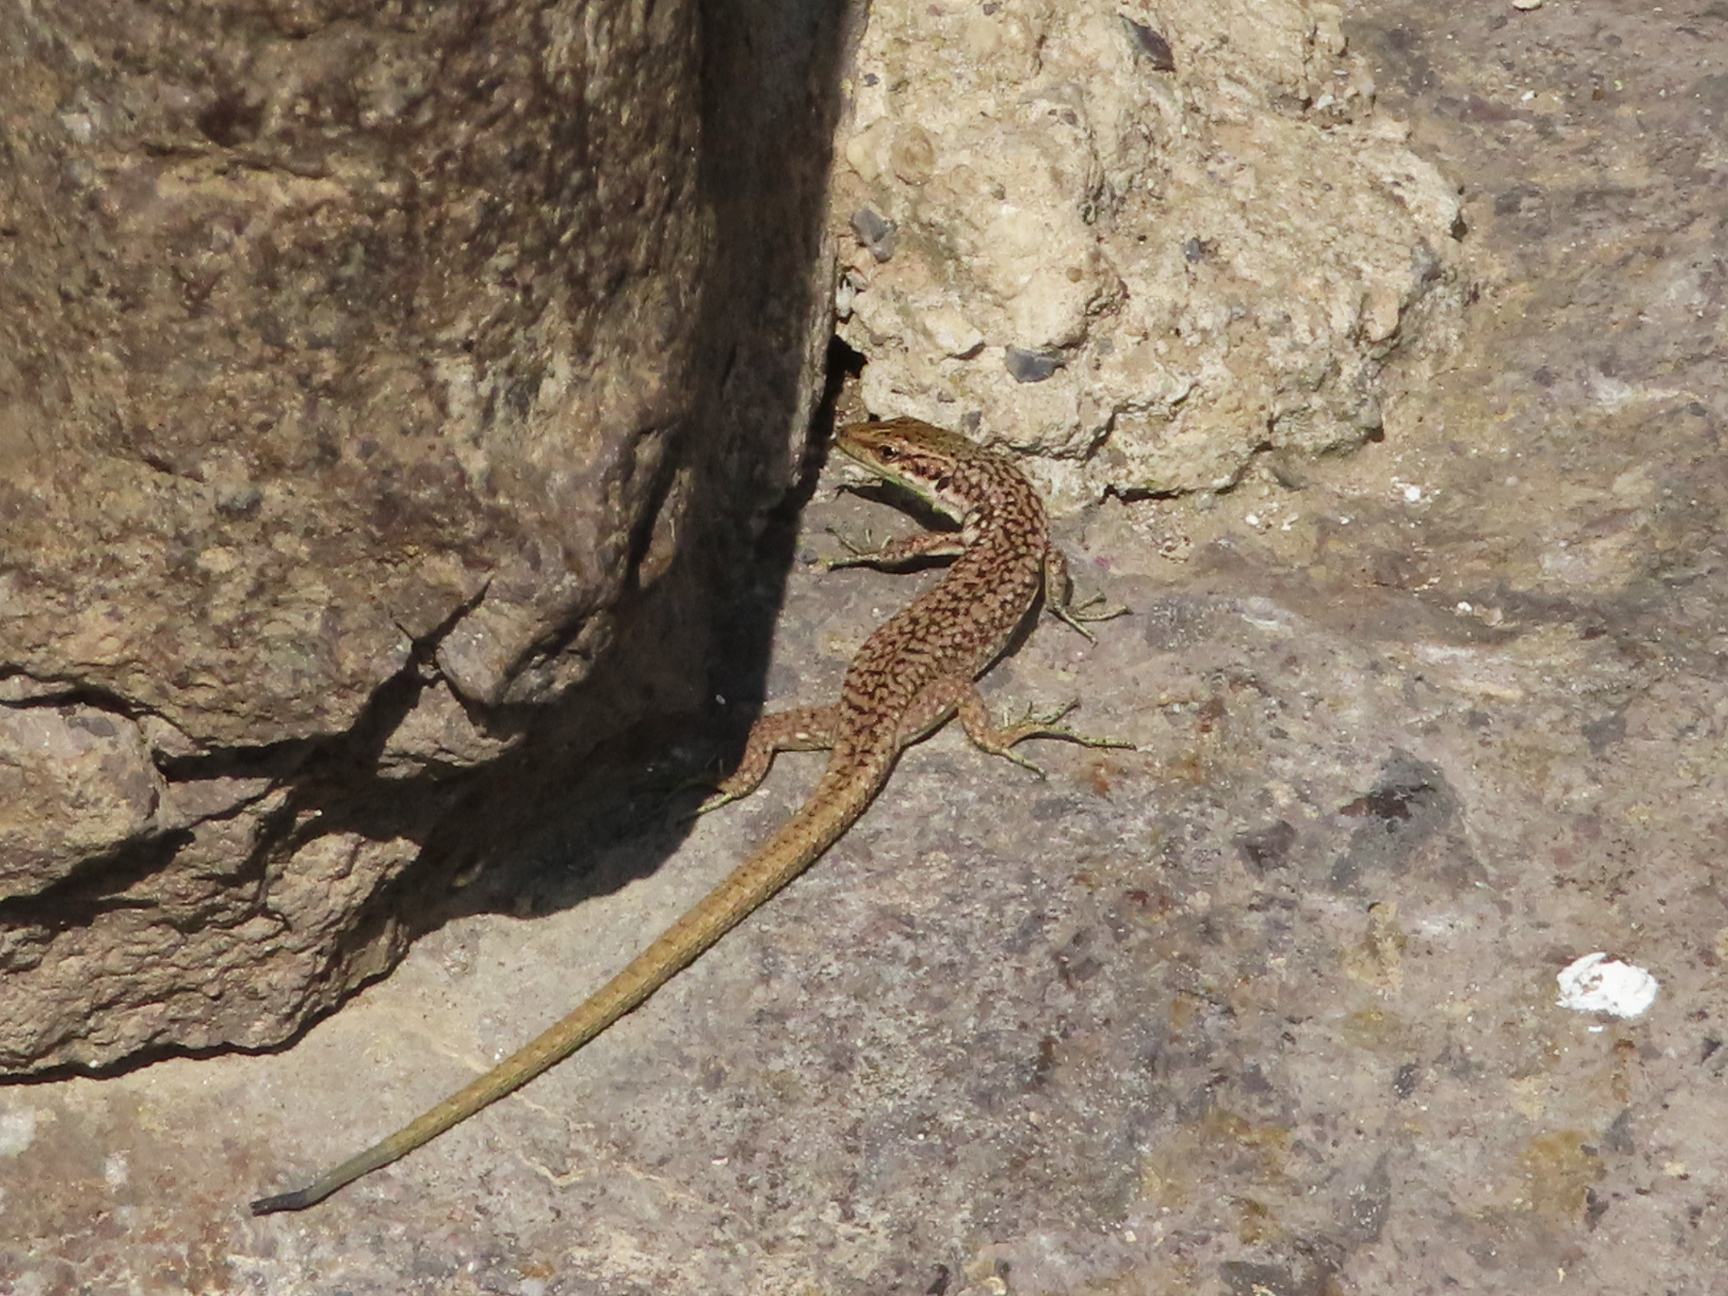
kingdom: Animalia
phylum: Chordata
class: Squamata
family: Lacertidae
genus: Darevskia
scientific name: Darevskia rostombekowi
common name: Rostombekow's lizard
